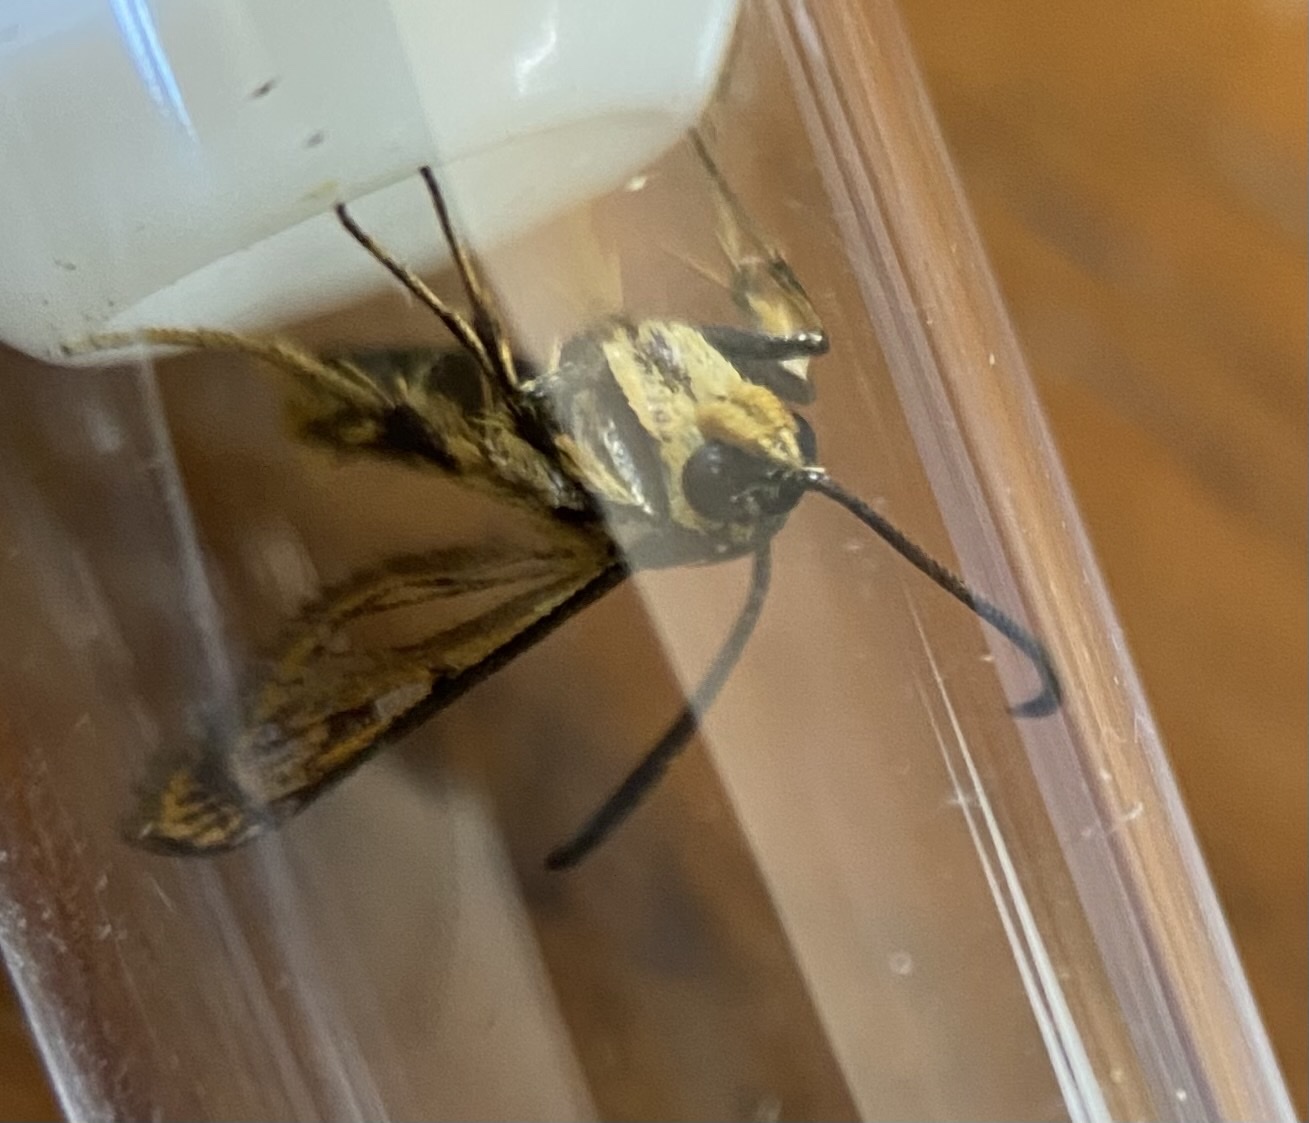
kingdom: Animalia
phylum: Arthropoda
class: Insecta
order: Lepidoptera
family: Sesiidae
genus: Synanthedon
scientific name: Synanthedon bibionipennis
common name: Strawberry crown moth
